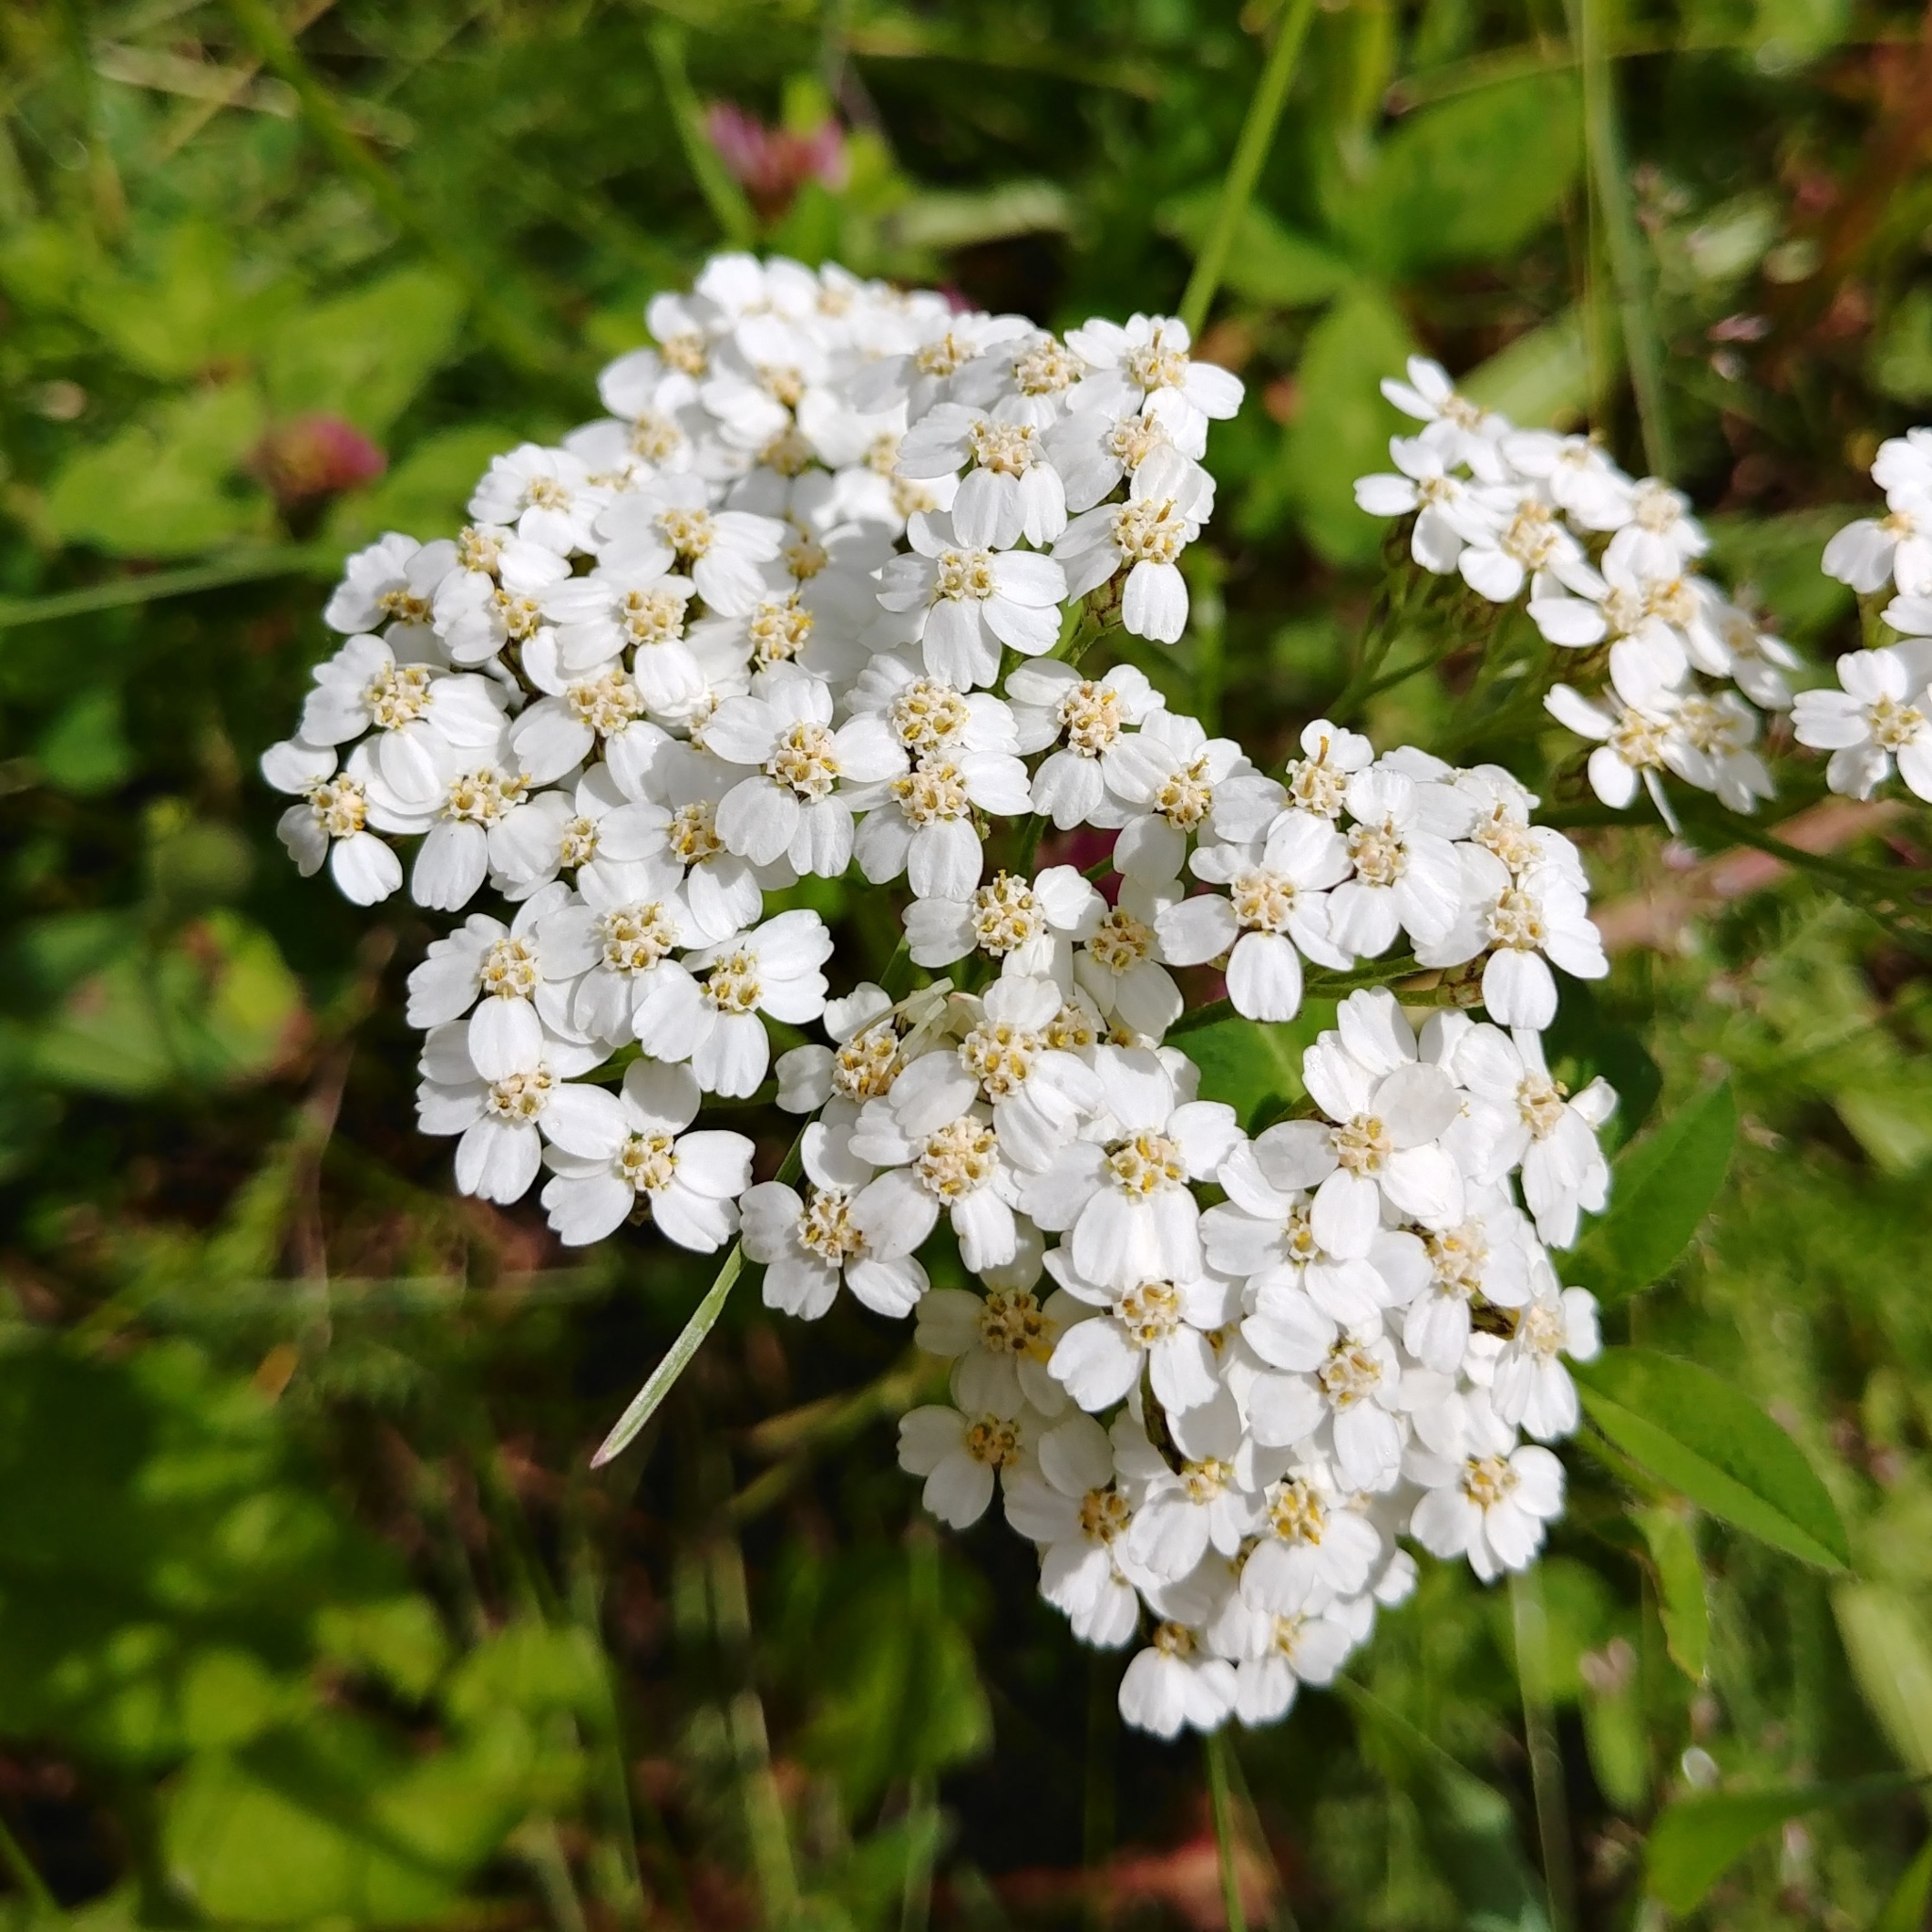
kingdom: Plantae
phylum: Tracheophyta
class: Magnoliopsida
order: Asterales
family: Asteraceae
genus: Achillea
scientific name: Achillea millefolium
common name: Yarrow
